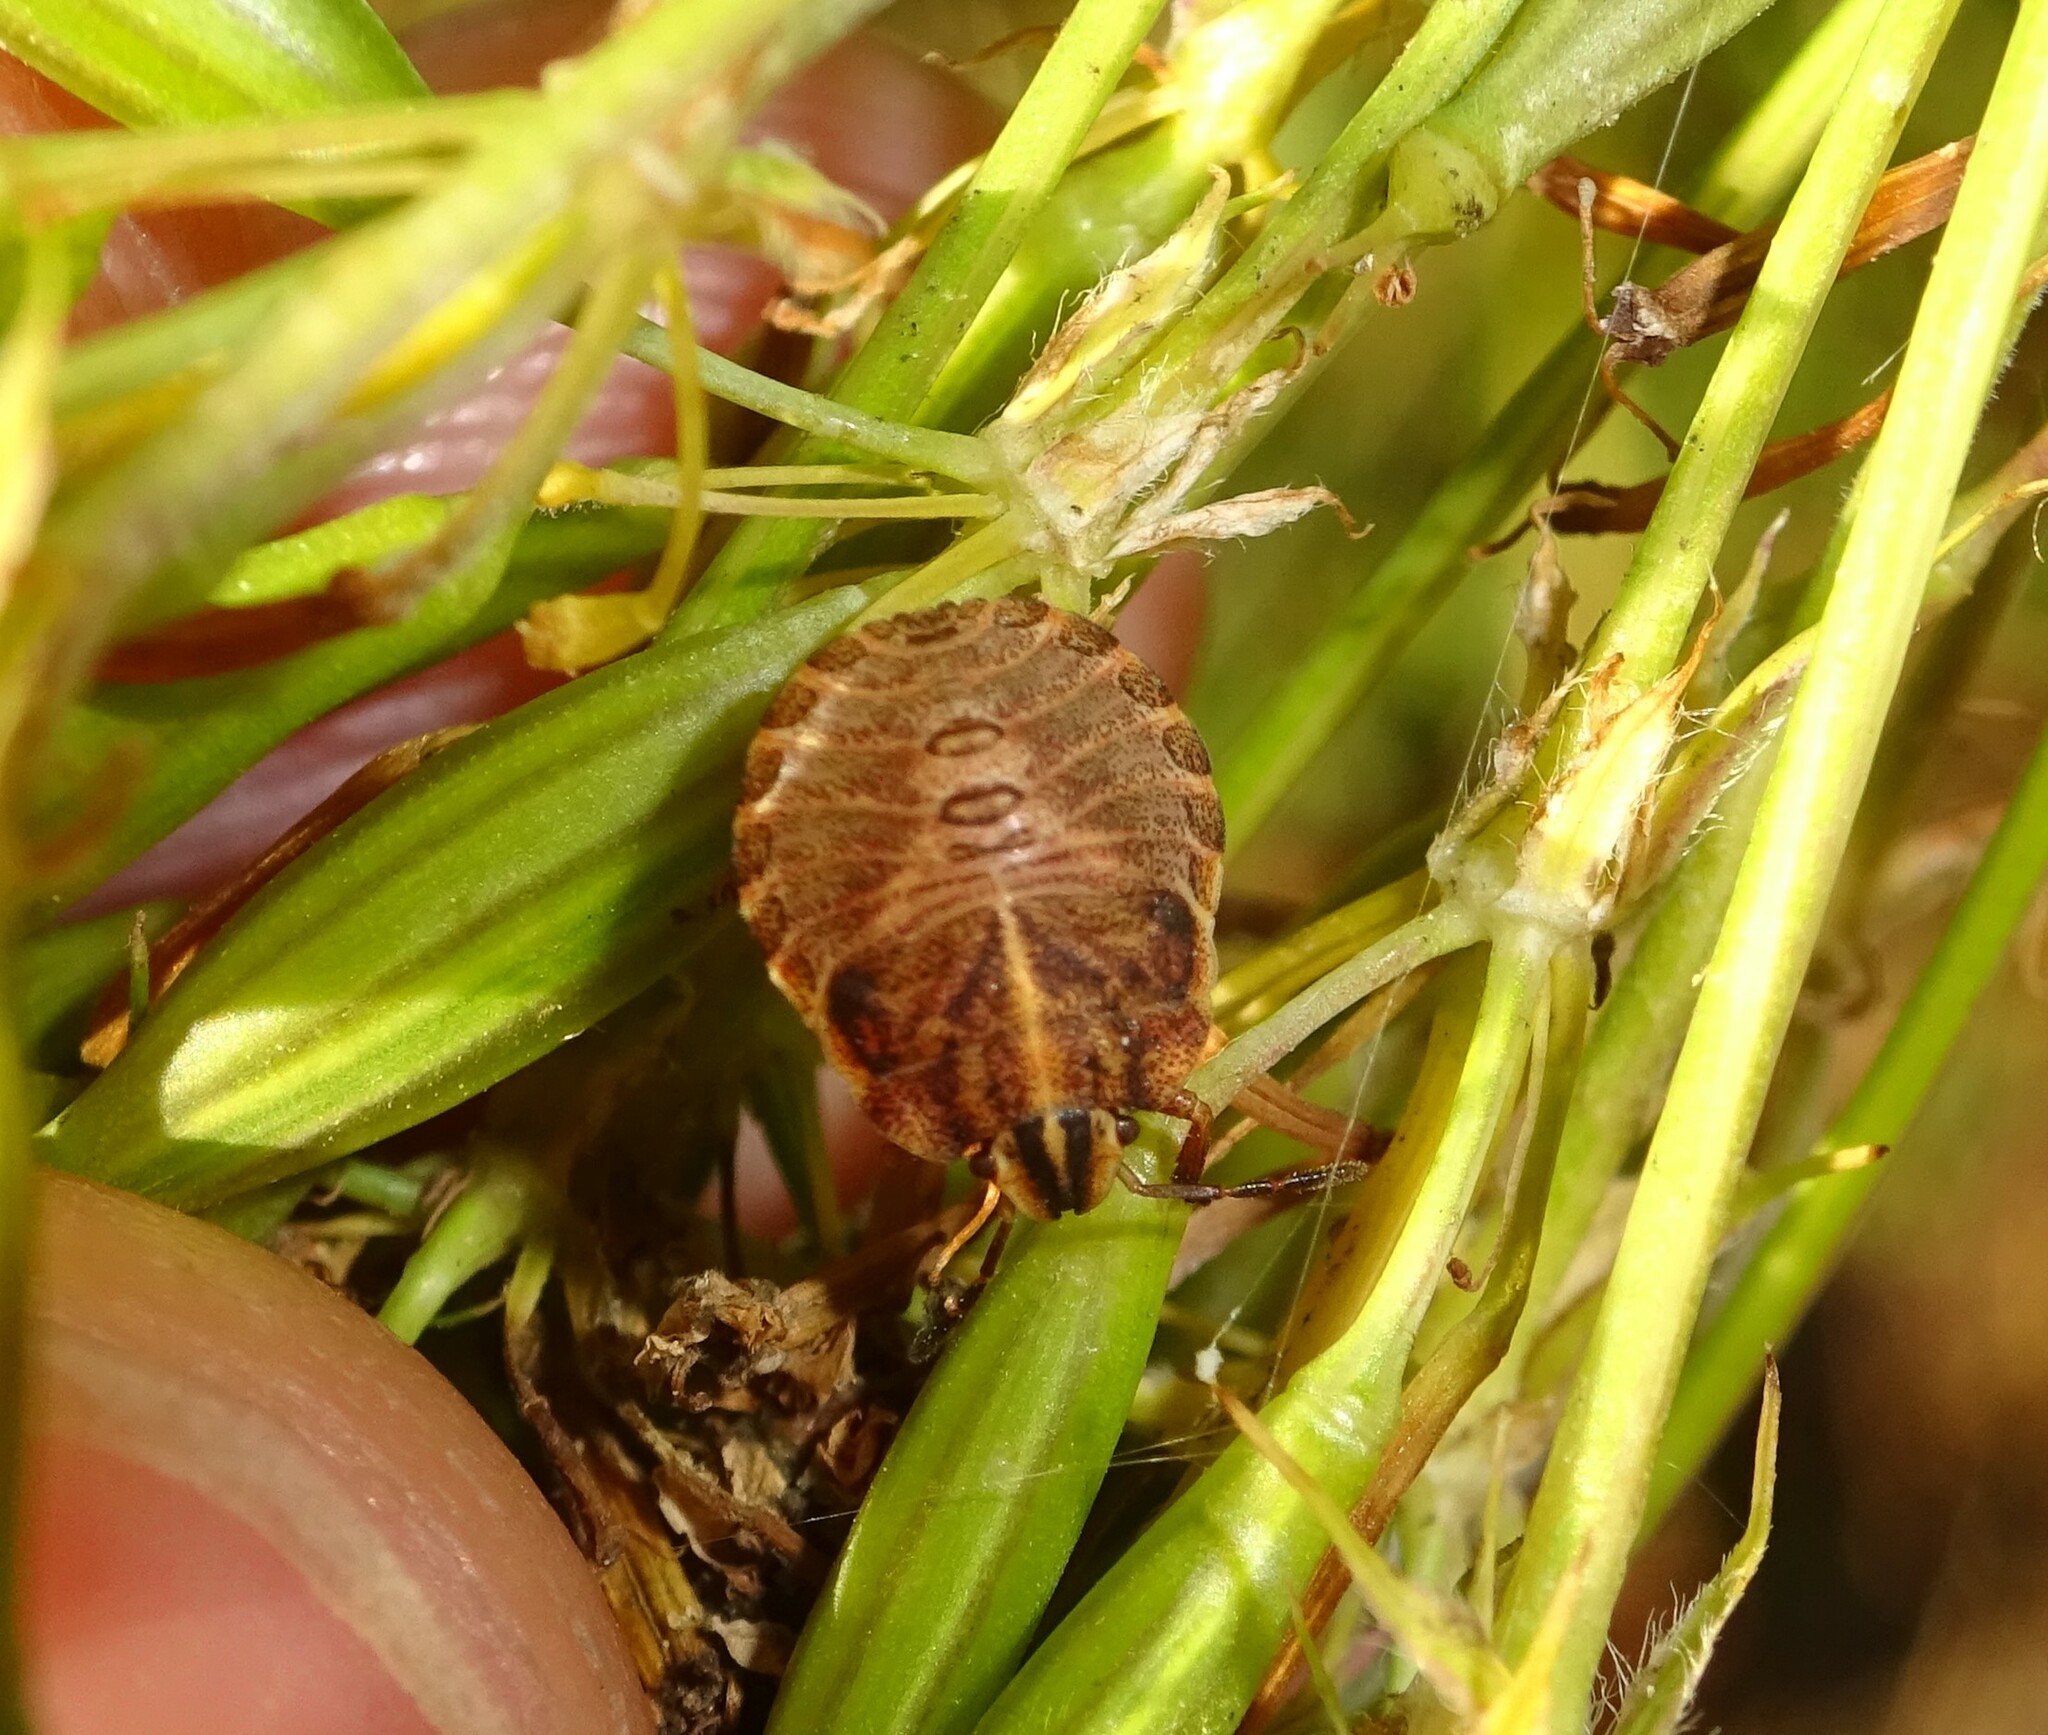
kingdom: Animalia
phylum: Arthropoda
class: Insecta
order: Hemiptera
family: Pentatomidae
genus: Graphosoma
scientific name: Graphosoma italicum
